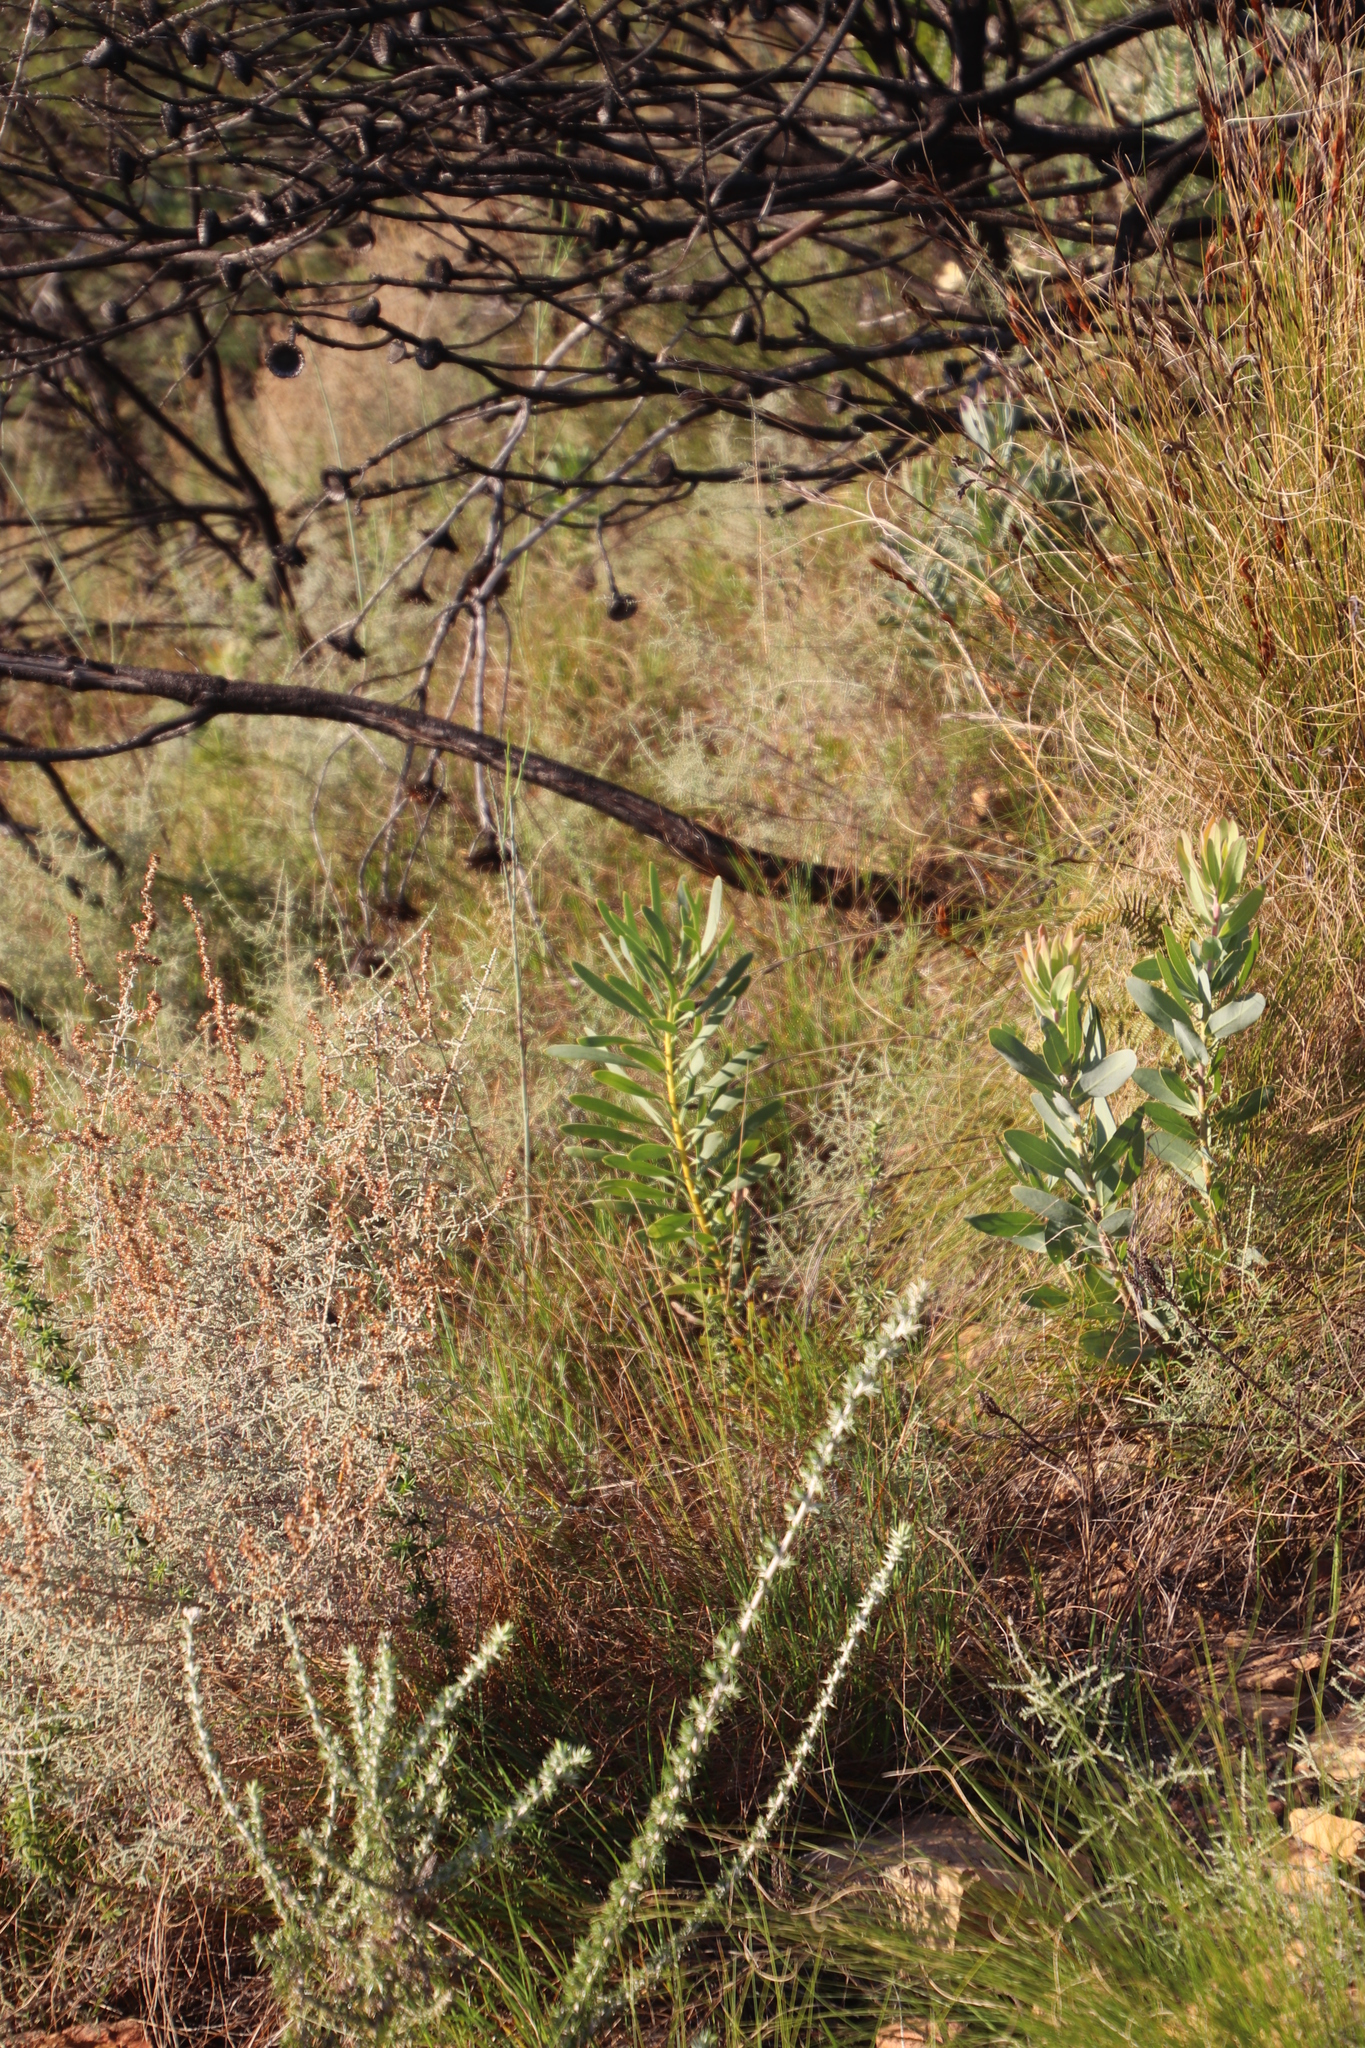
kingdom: Plantae
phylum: Tracheophyta
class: Magnoliopsida
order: Proteales
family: Proteaceae
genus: Protea
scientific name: Protea repens
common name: Sugarbush
